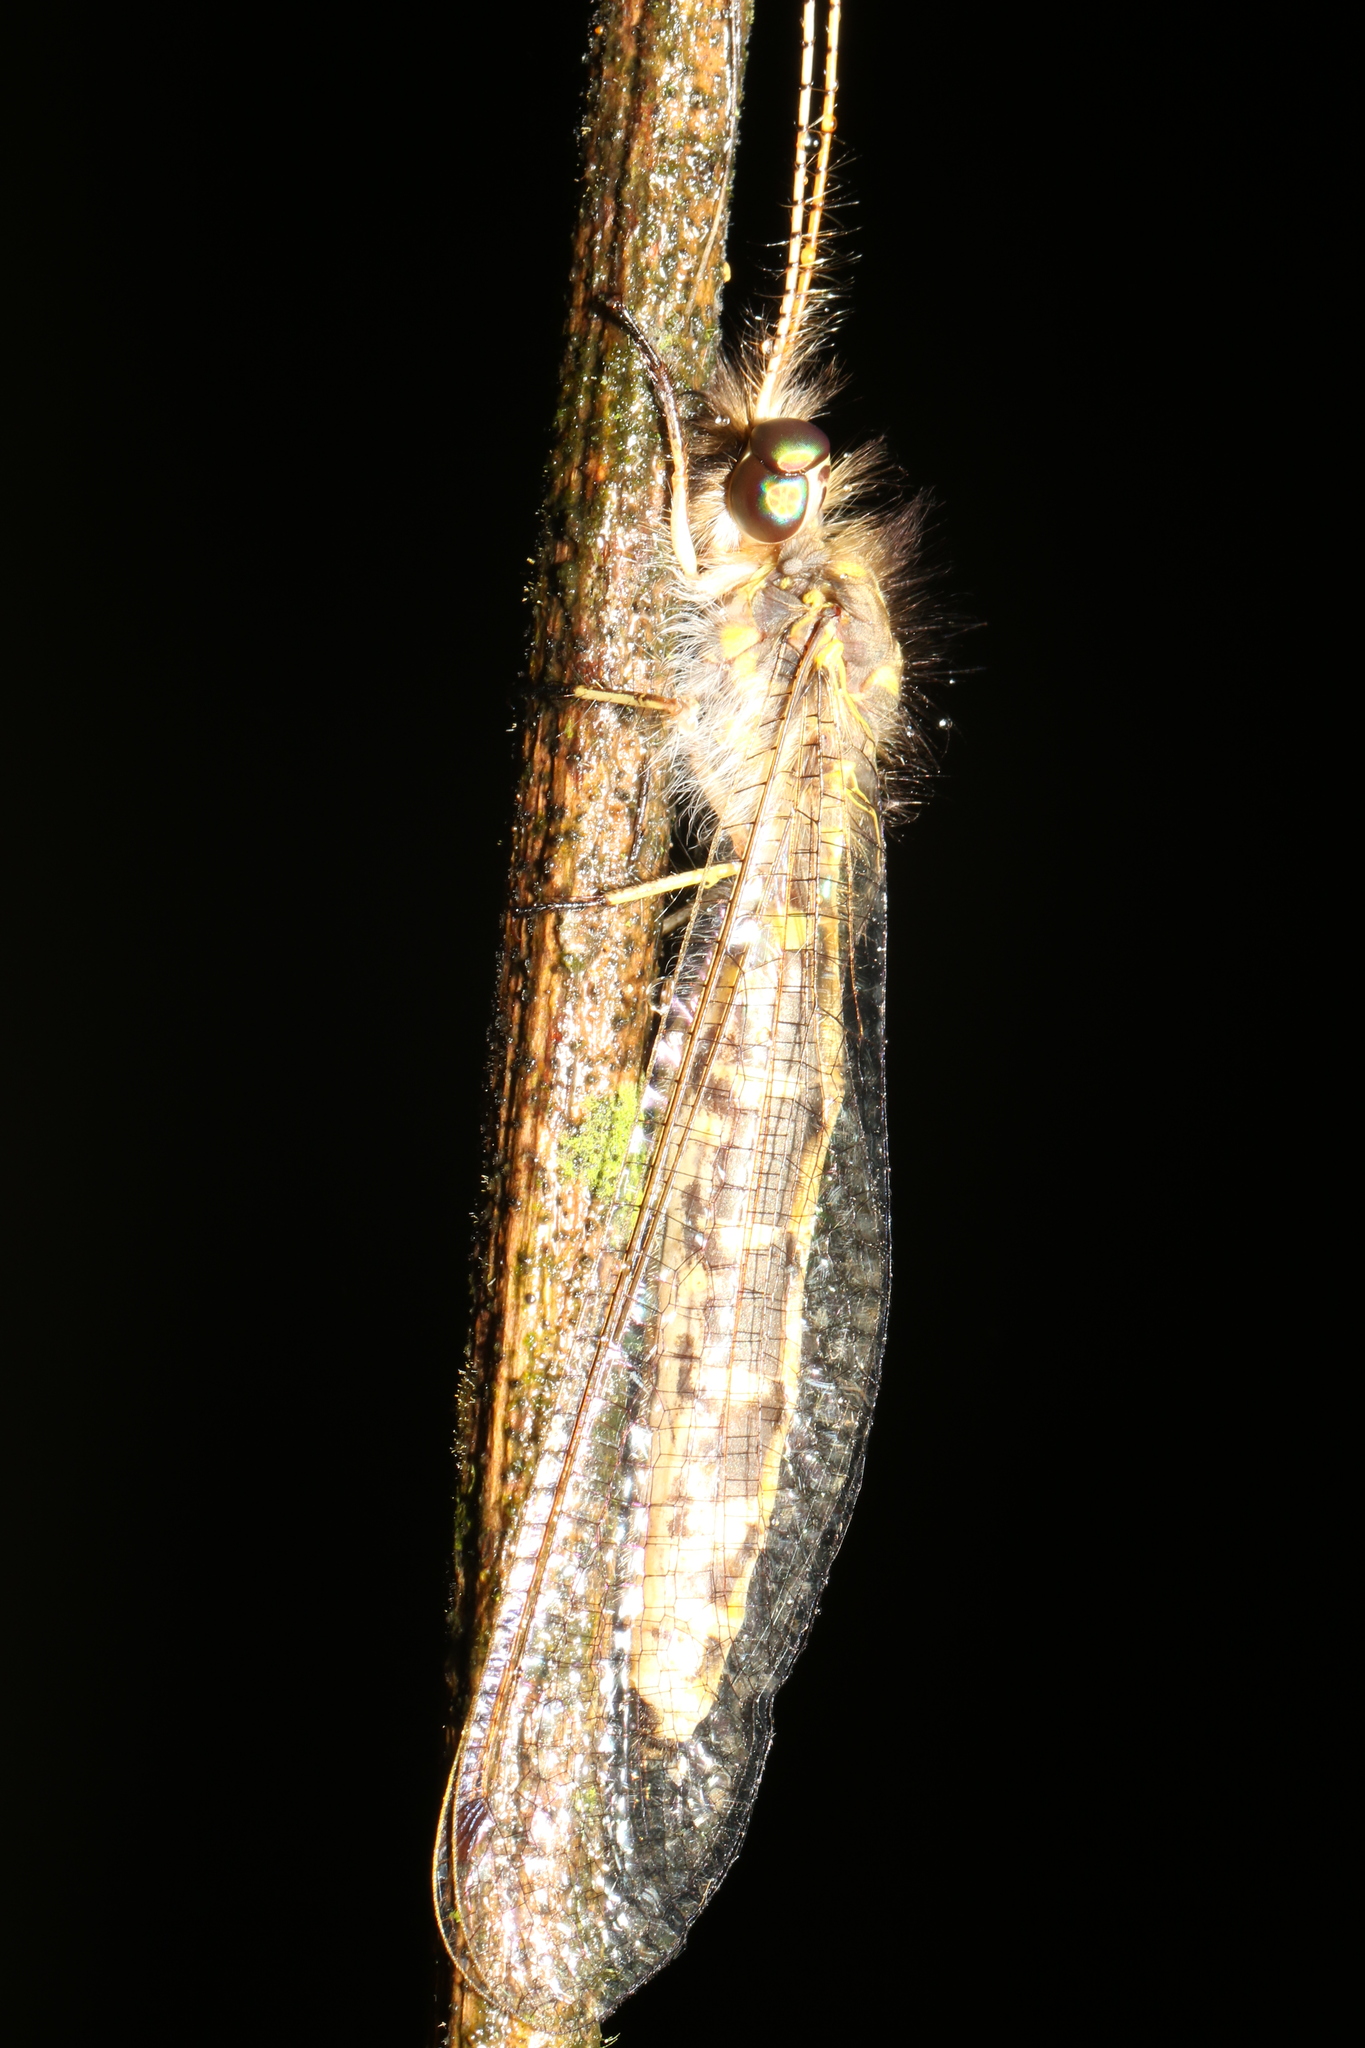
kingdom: Animalia
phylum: Arthropoda
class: Insecta
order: Neuroptera
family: Ascalaphidae
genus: Ameropterus
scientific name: Ameropterus versicolor
